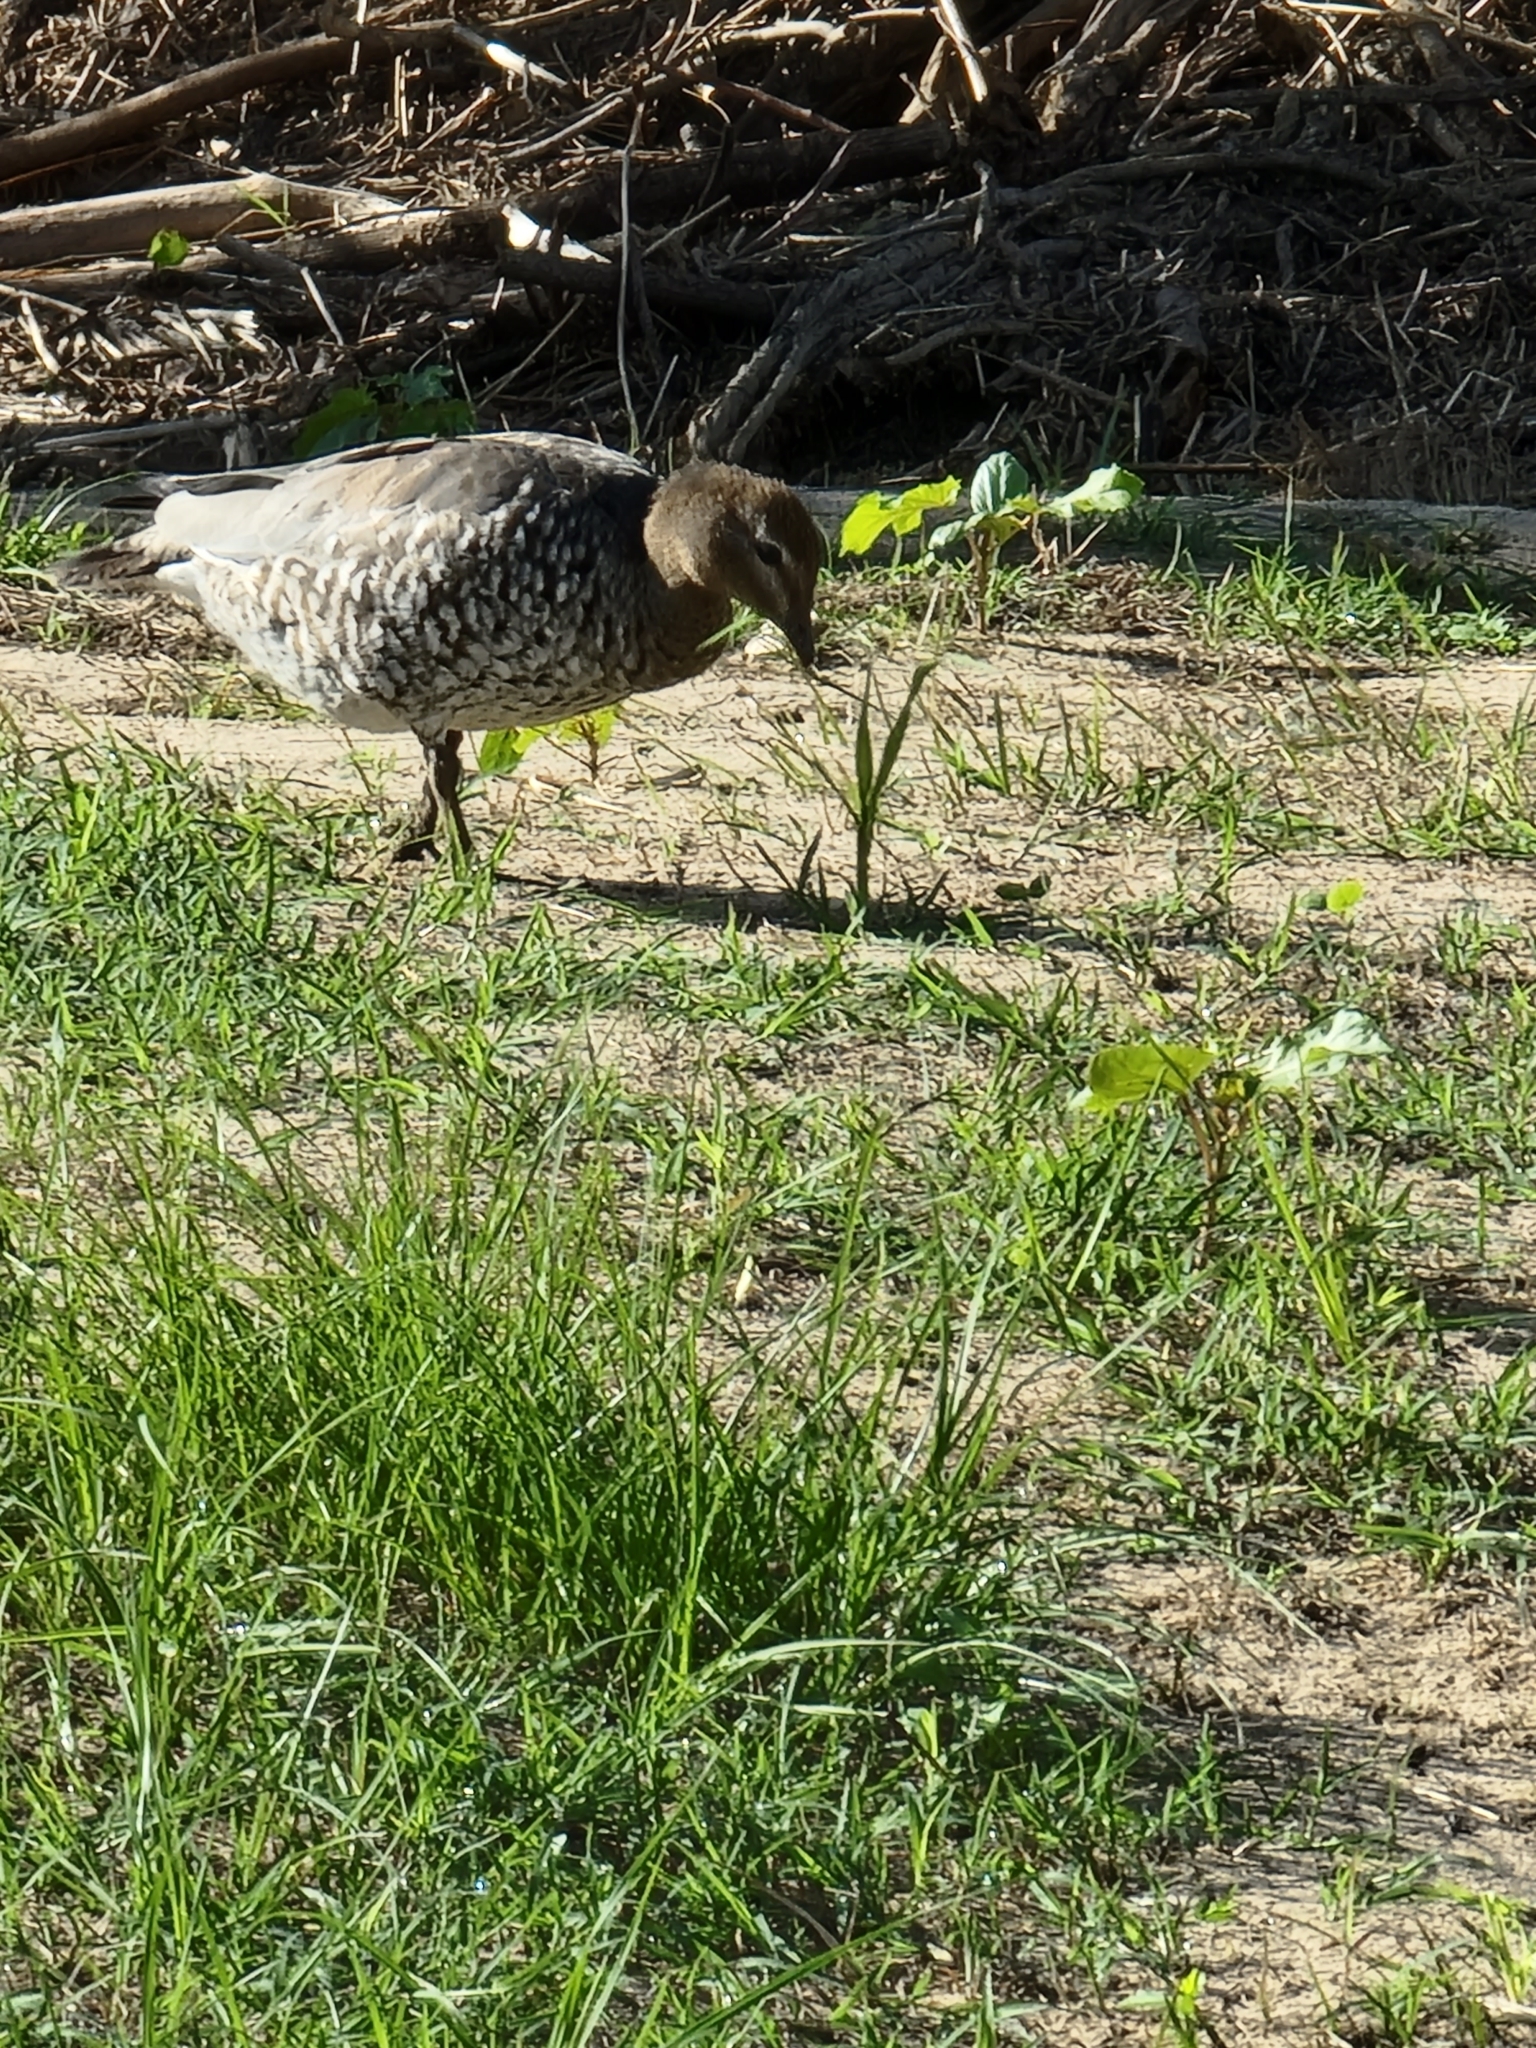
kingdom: Animalia
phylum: Chordata
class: Aves
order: Anseriformes
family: Anatidae
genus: Chenonetta
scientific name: Chenonetta jubata
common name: Maned duck
